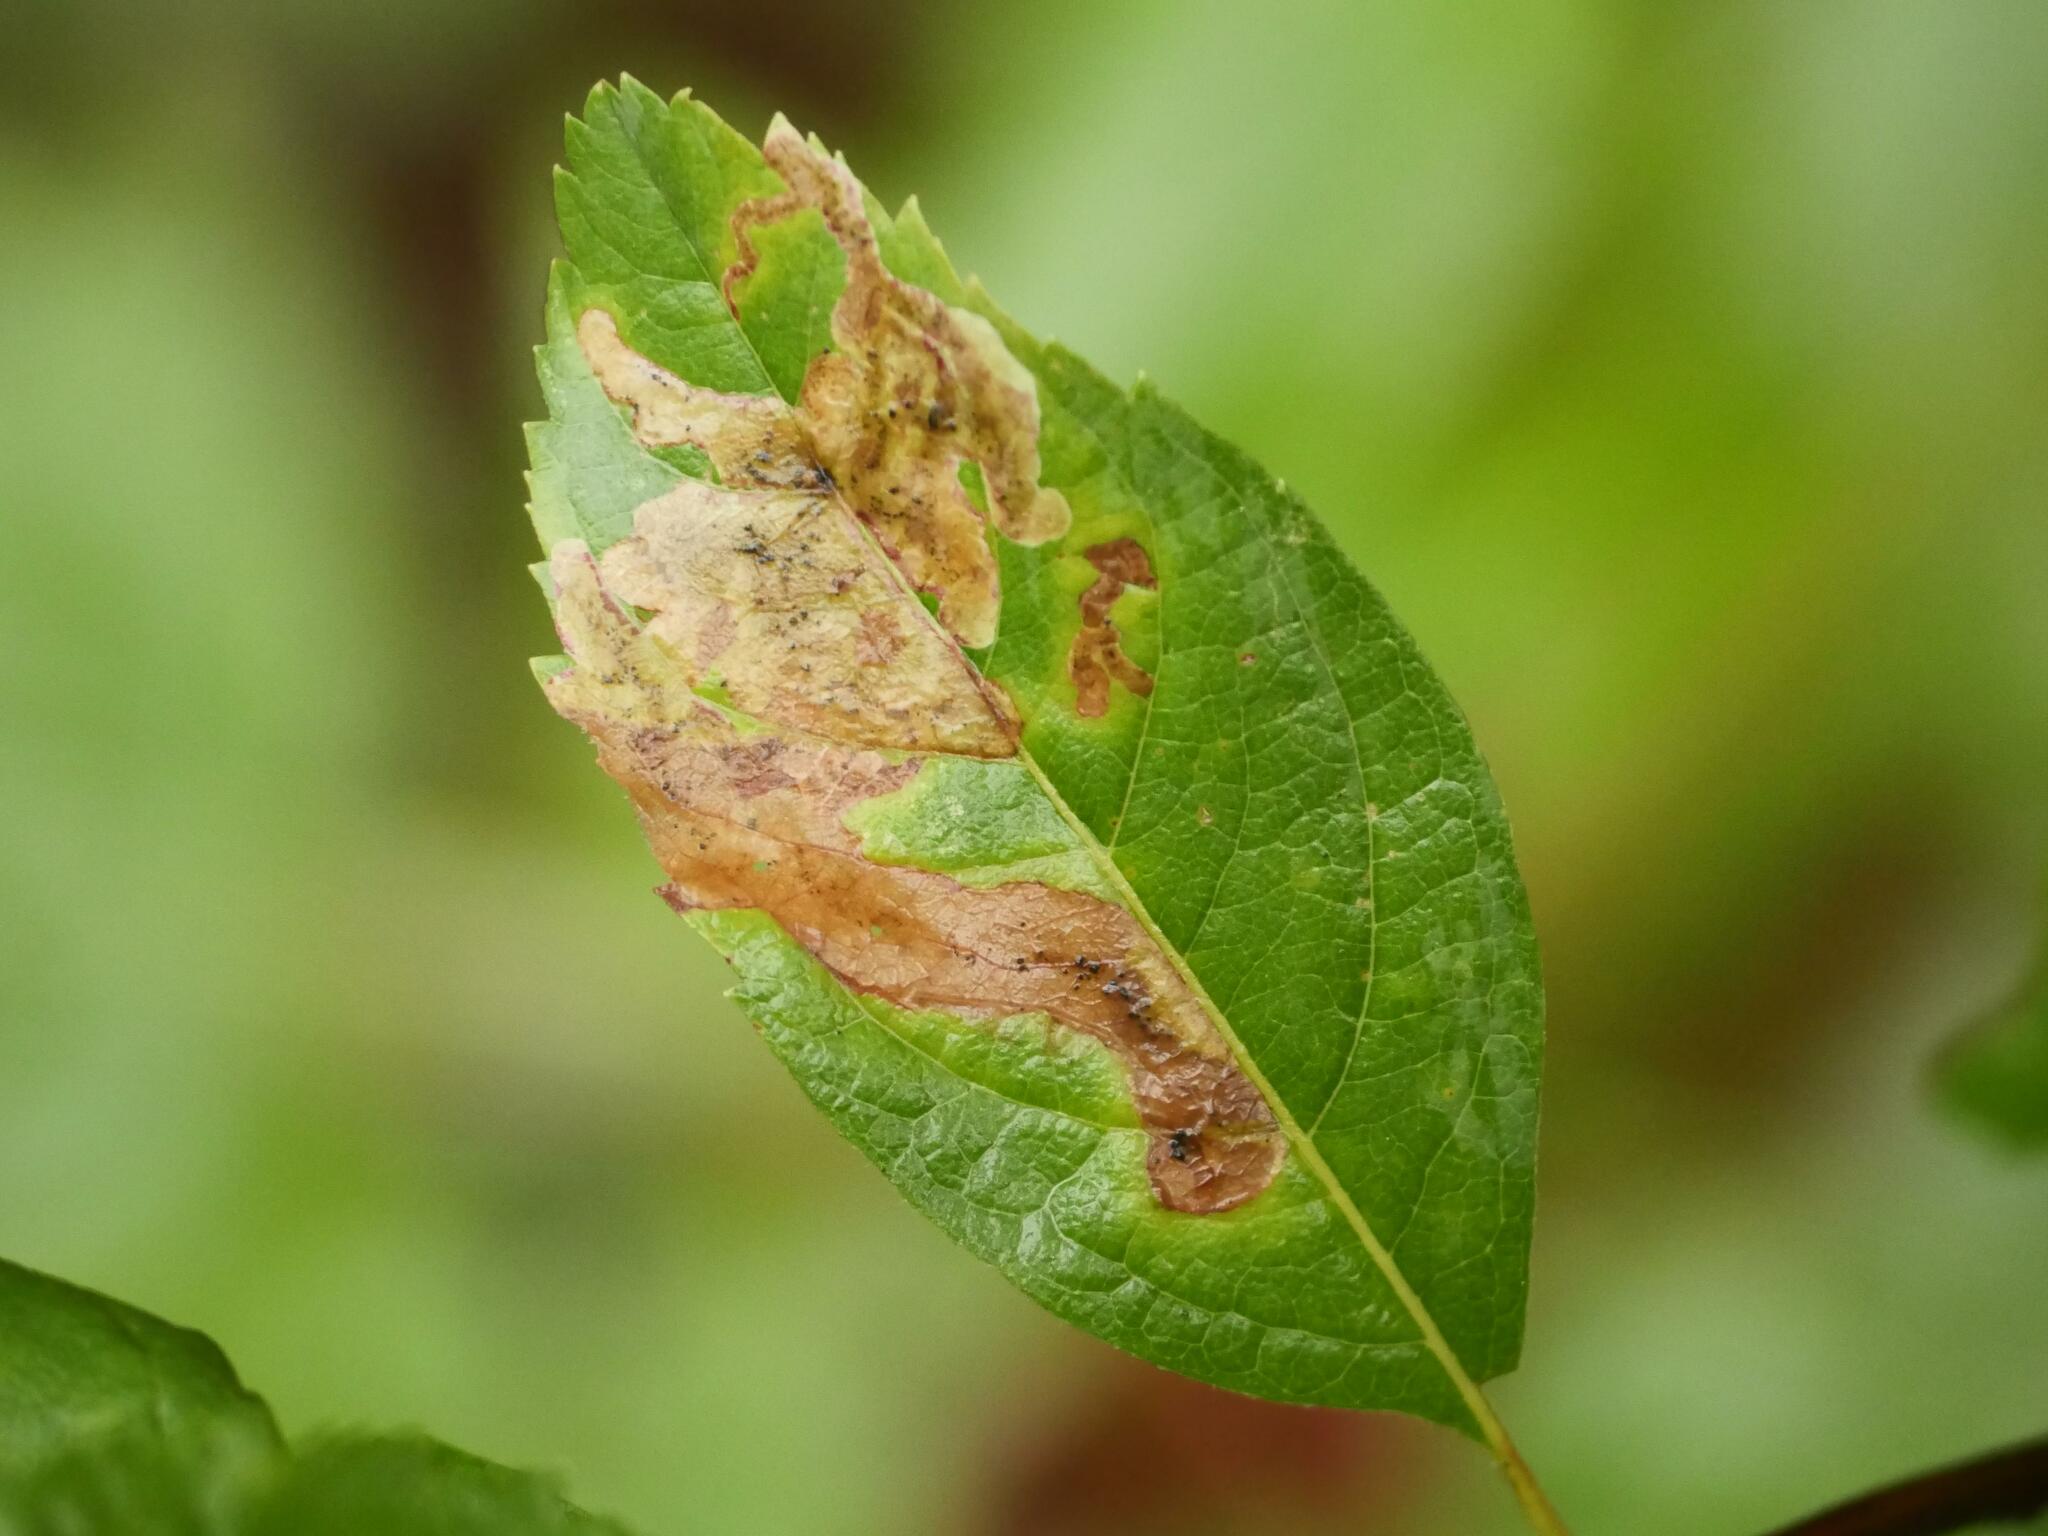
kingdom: Animalia
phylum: Arthropoda
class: Insecta
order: Diptera
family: Agromyzidae
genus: Agromyza
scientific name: Agromyza valdorensis
